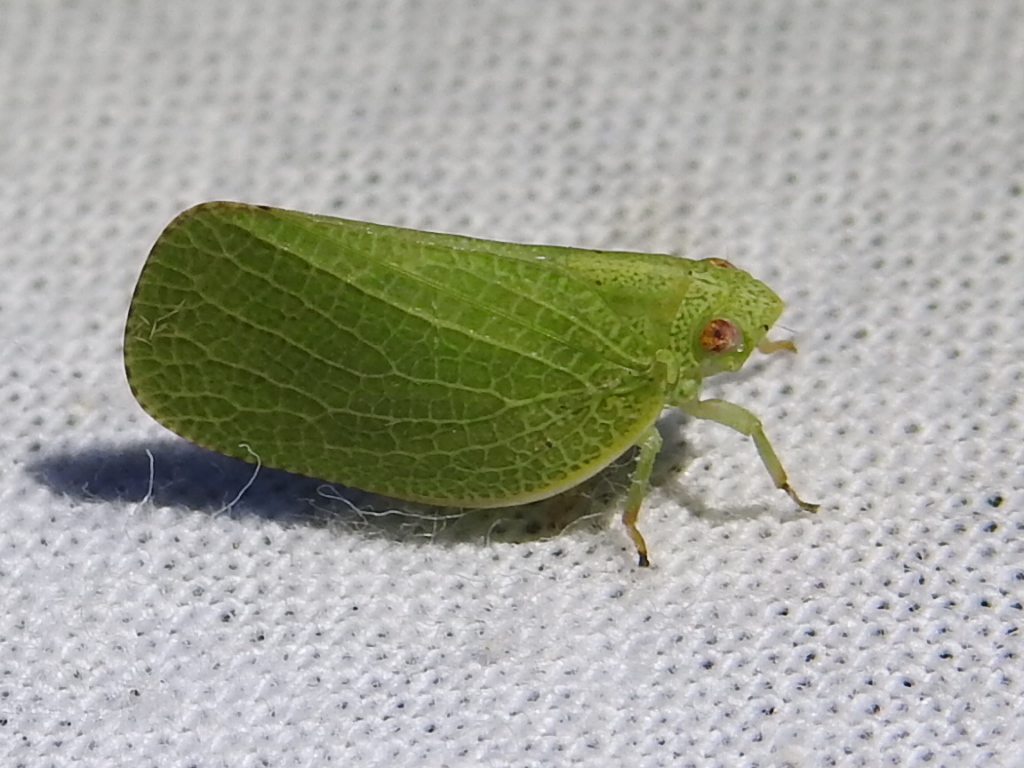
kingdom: Animalia
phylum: Arthropoda
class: Insecta
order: Hemiptera
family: Acanaloniidae
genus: Acanalonia
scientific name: Acanalonia conica
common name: Green cone-headed planthopper
